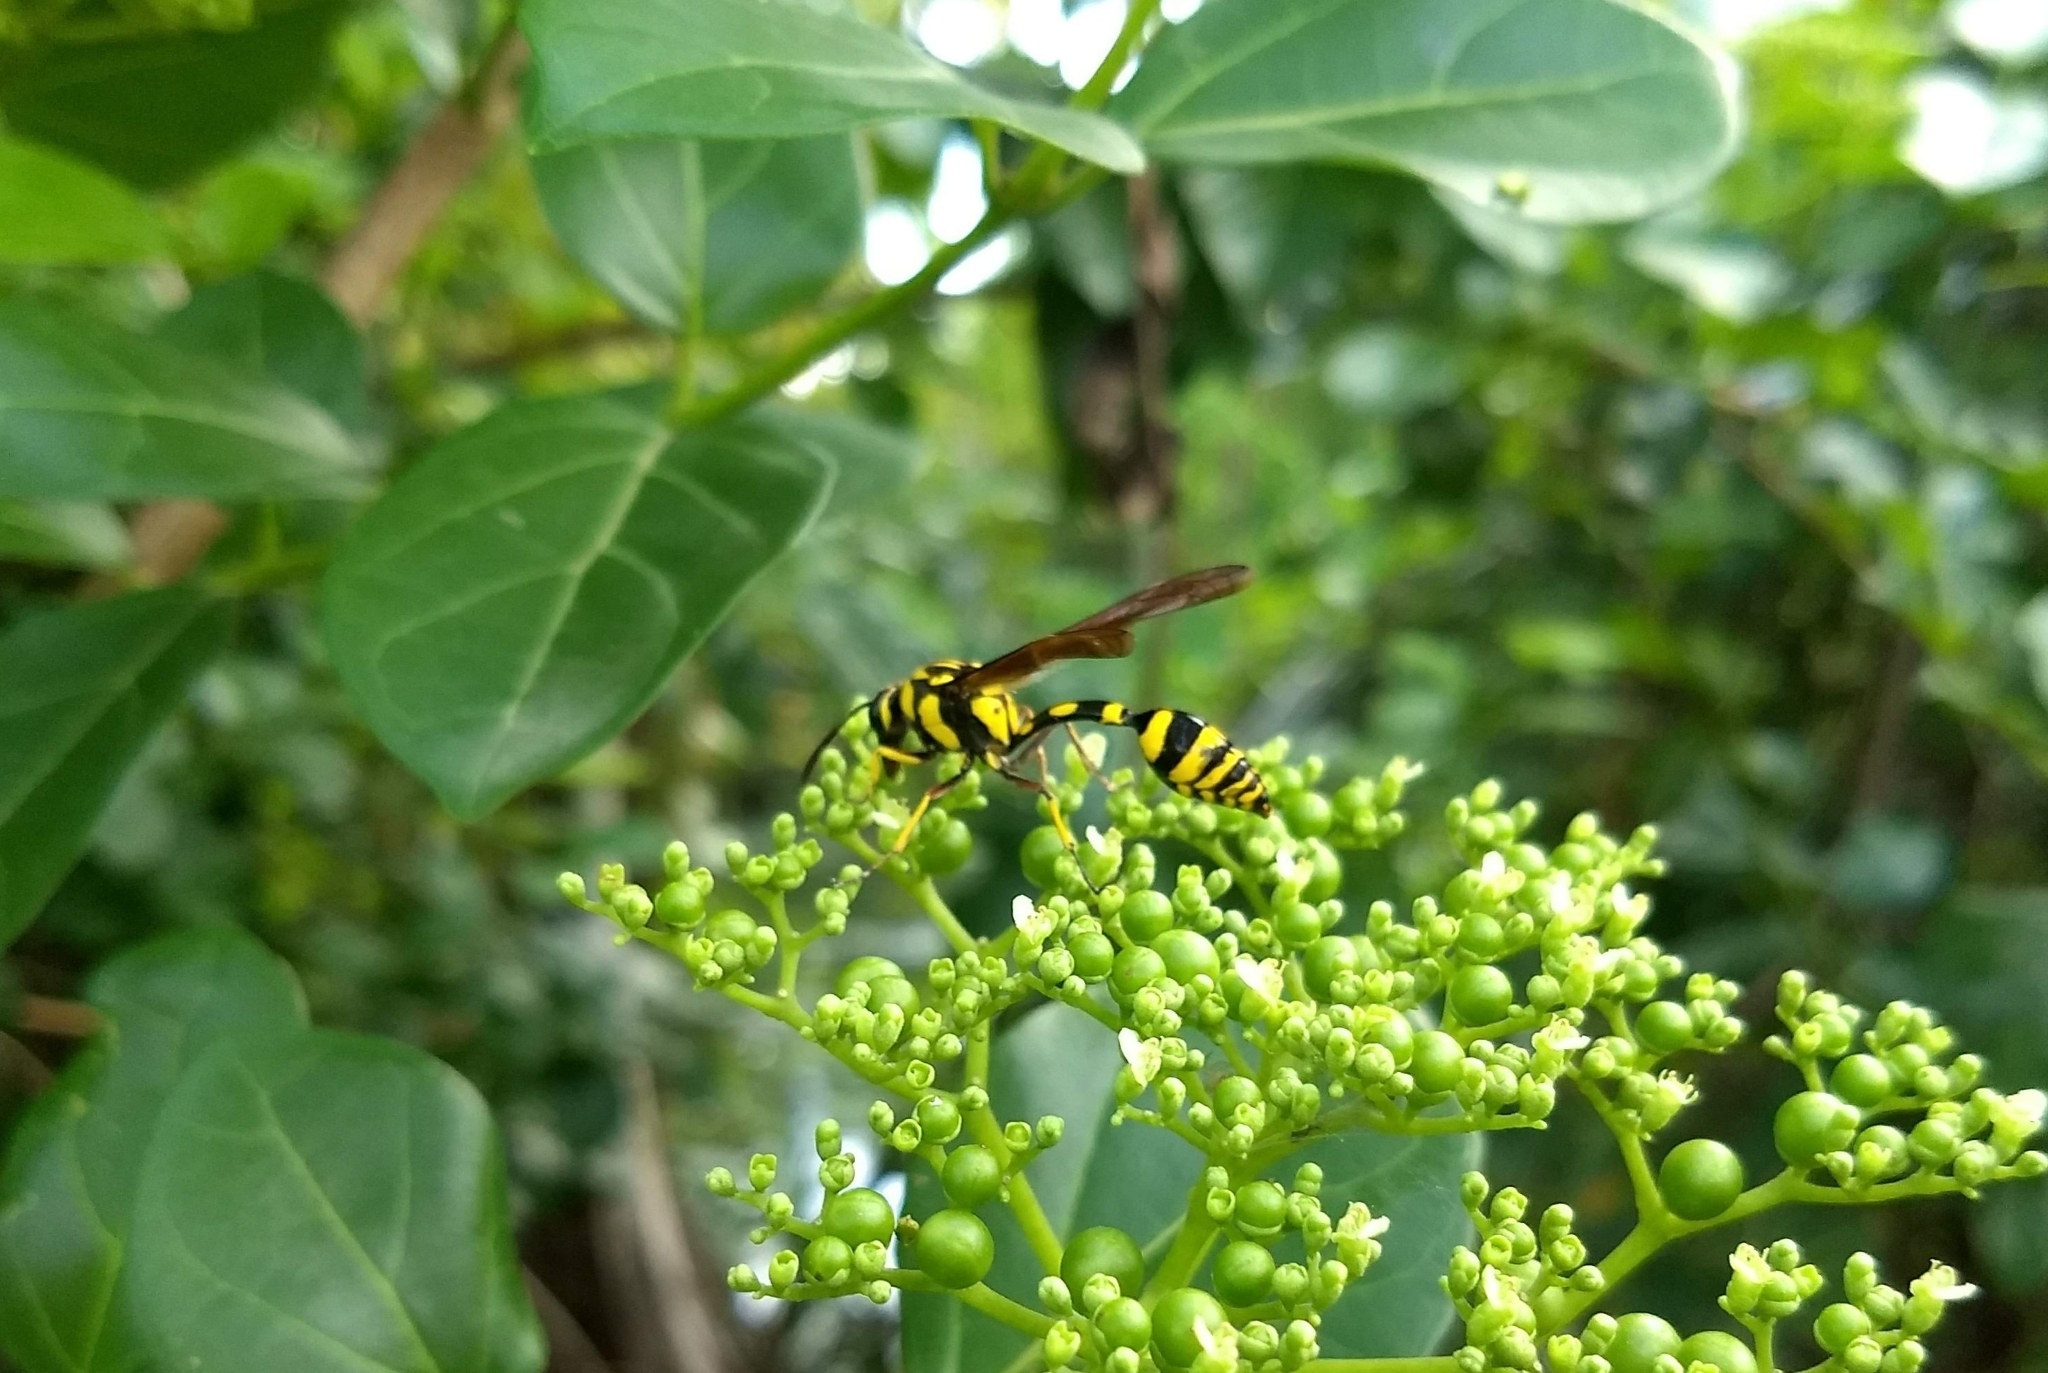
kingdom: Animalia
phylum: Arthropoda
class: Insecta
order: Hymenoptera
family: Eumenidae
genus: Phimenes
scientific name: Phimenes flavopictus
